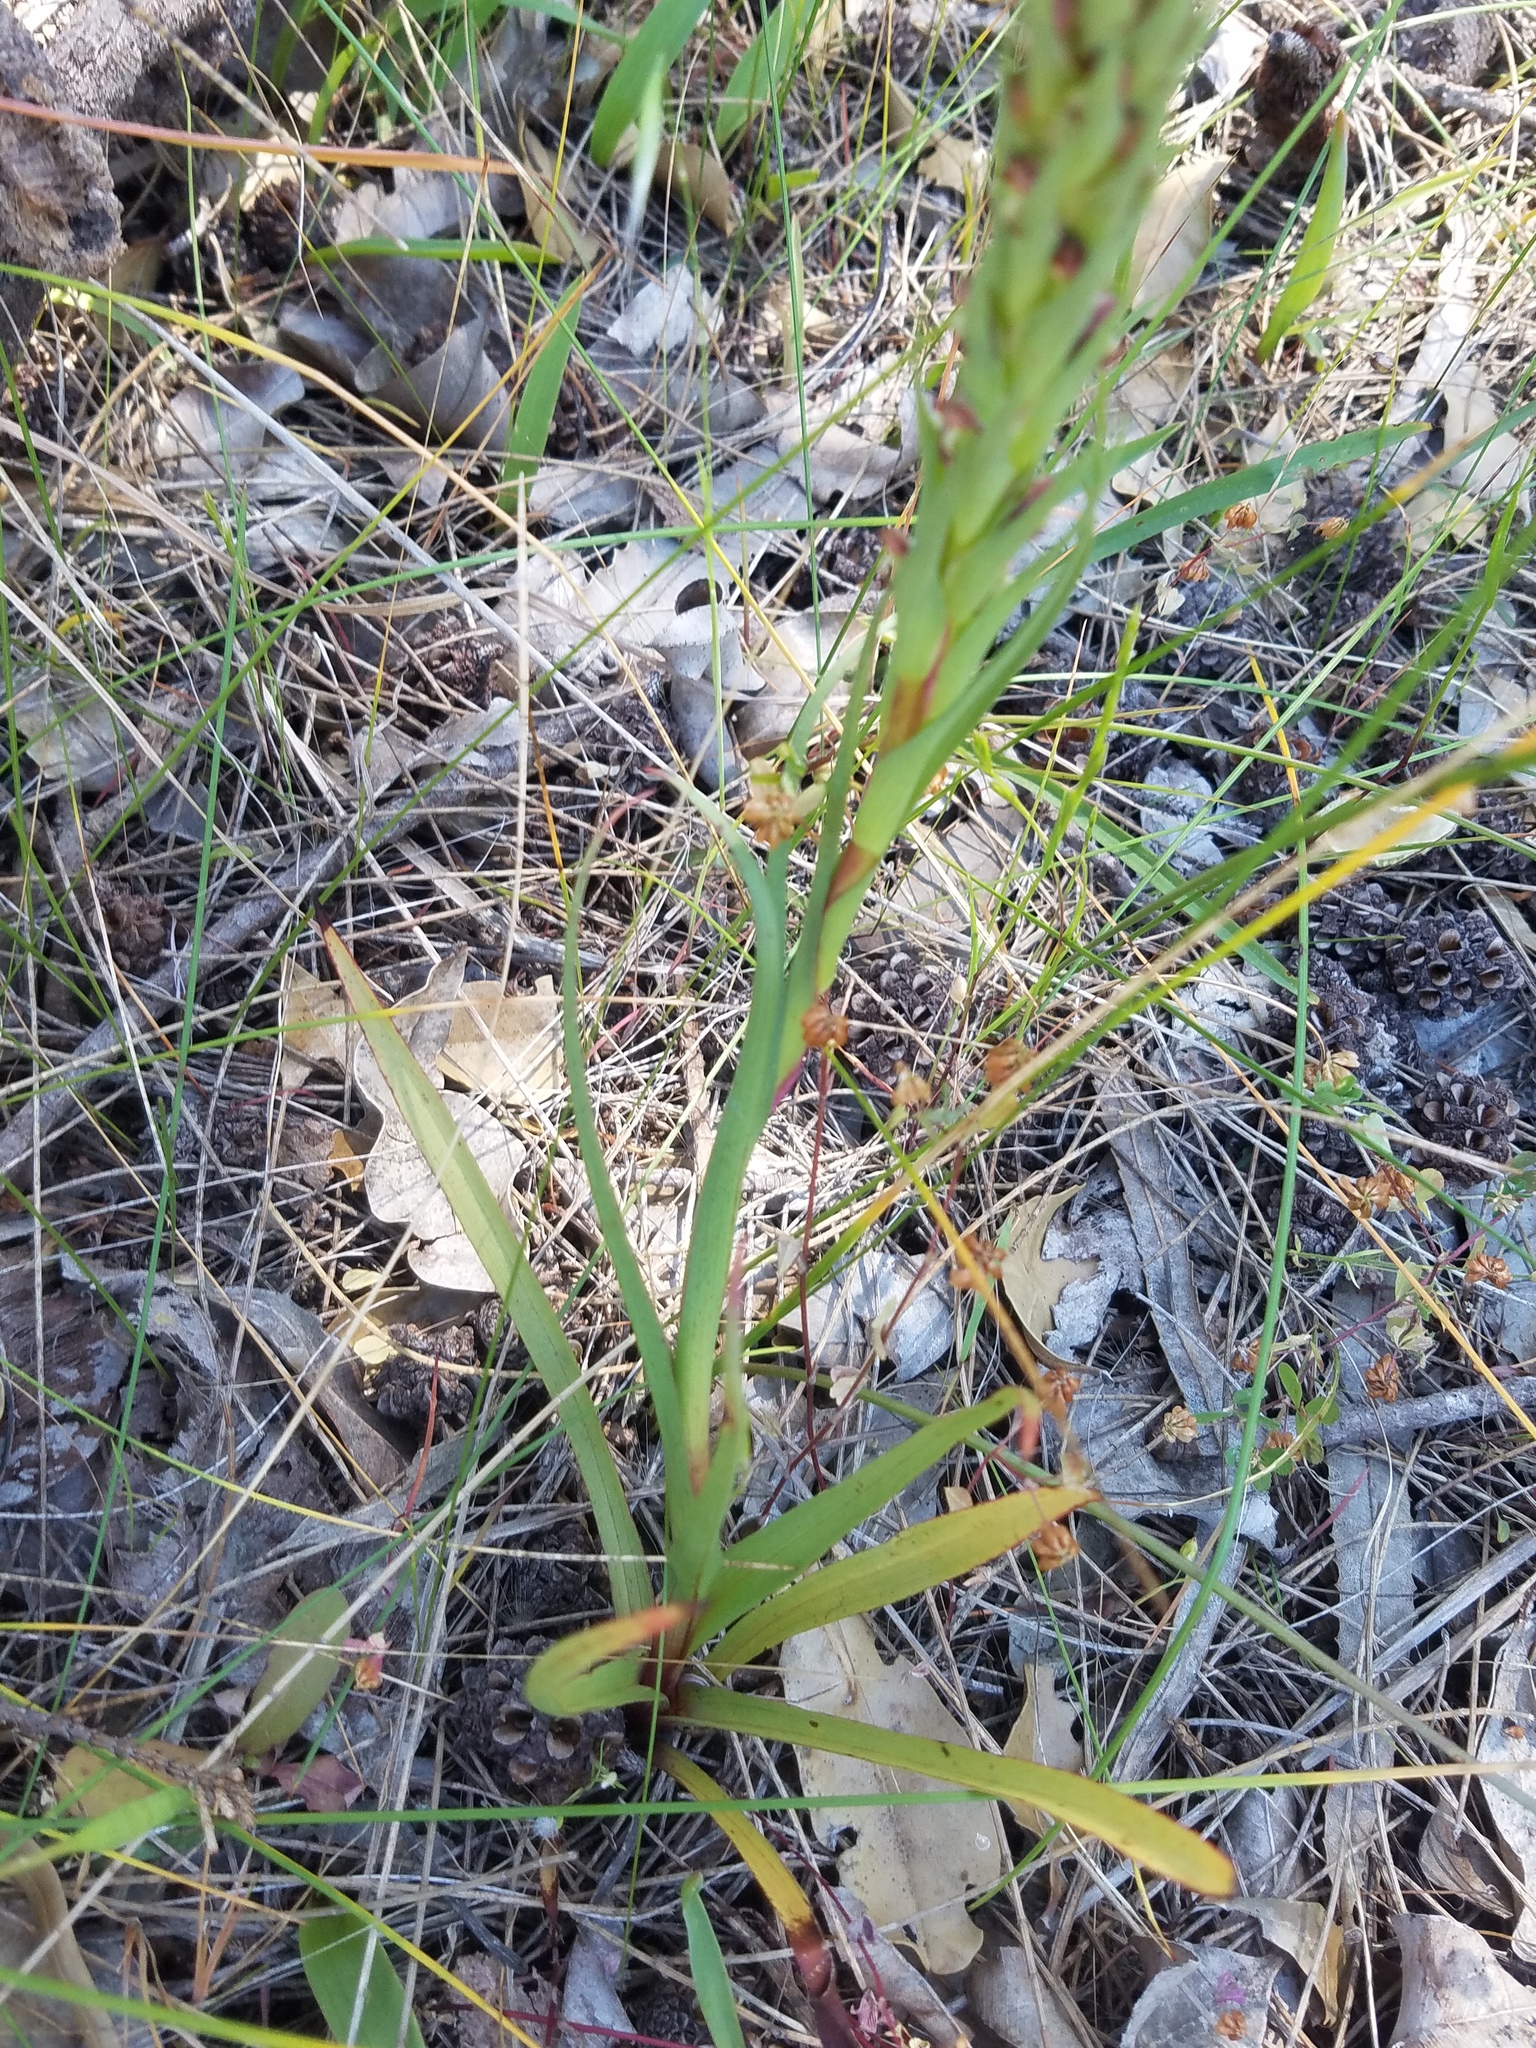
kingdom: Plantae
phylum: Tracheophyta
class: Liliopsida
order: Asparagales
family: Orchidaceae
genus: Disa
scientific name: Disa bracteata
